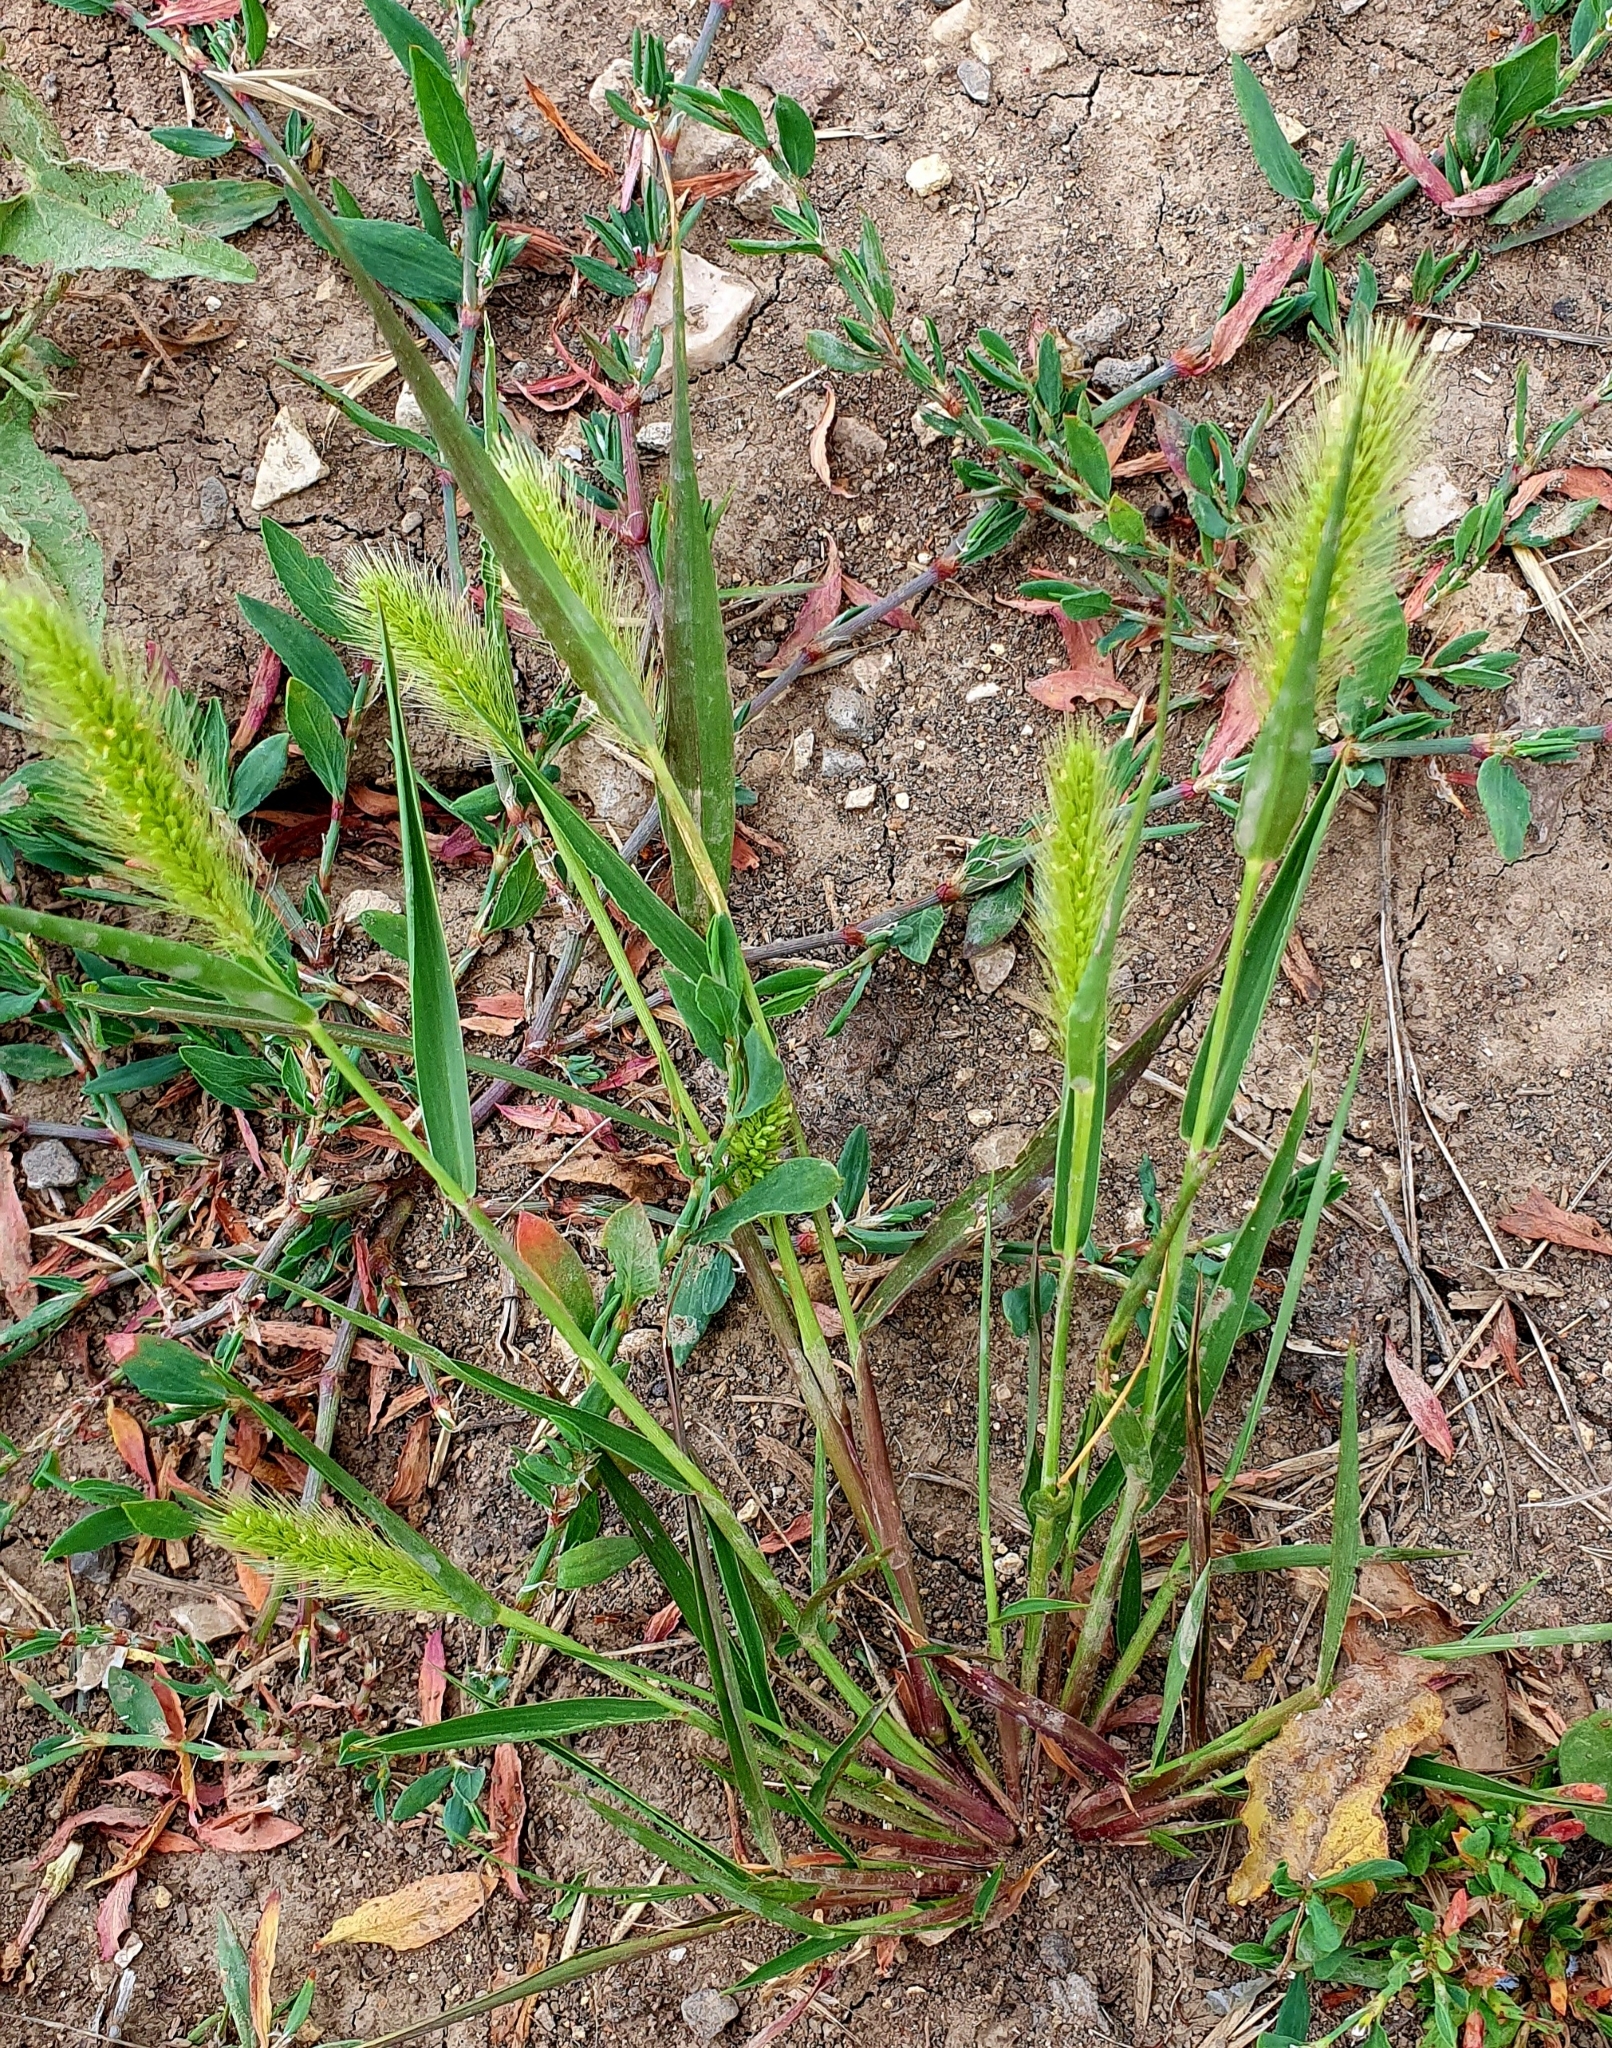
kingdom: Plantae
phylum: Tracheophyta
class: Liliopsida
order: Poales
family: Poaceae
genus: Setaria
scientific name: Setaria viridis
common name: Green bristlegrass
